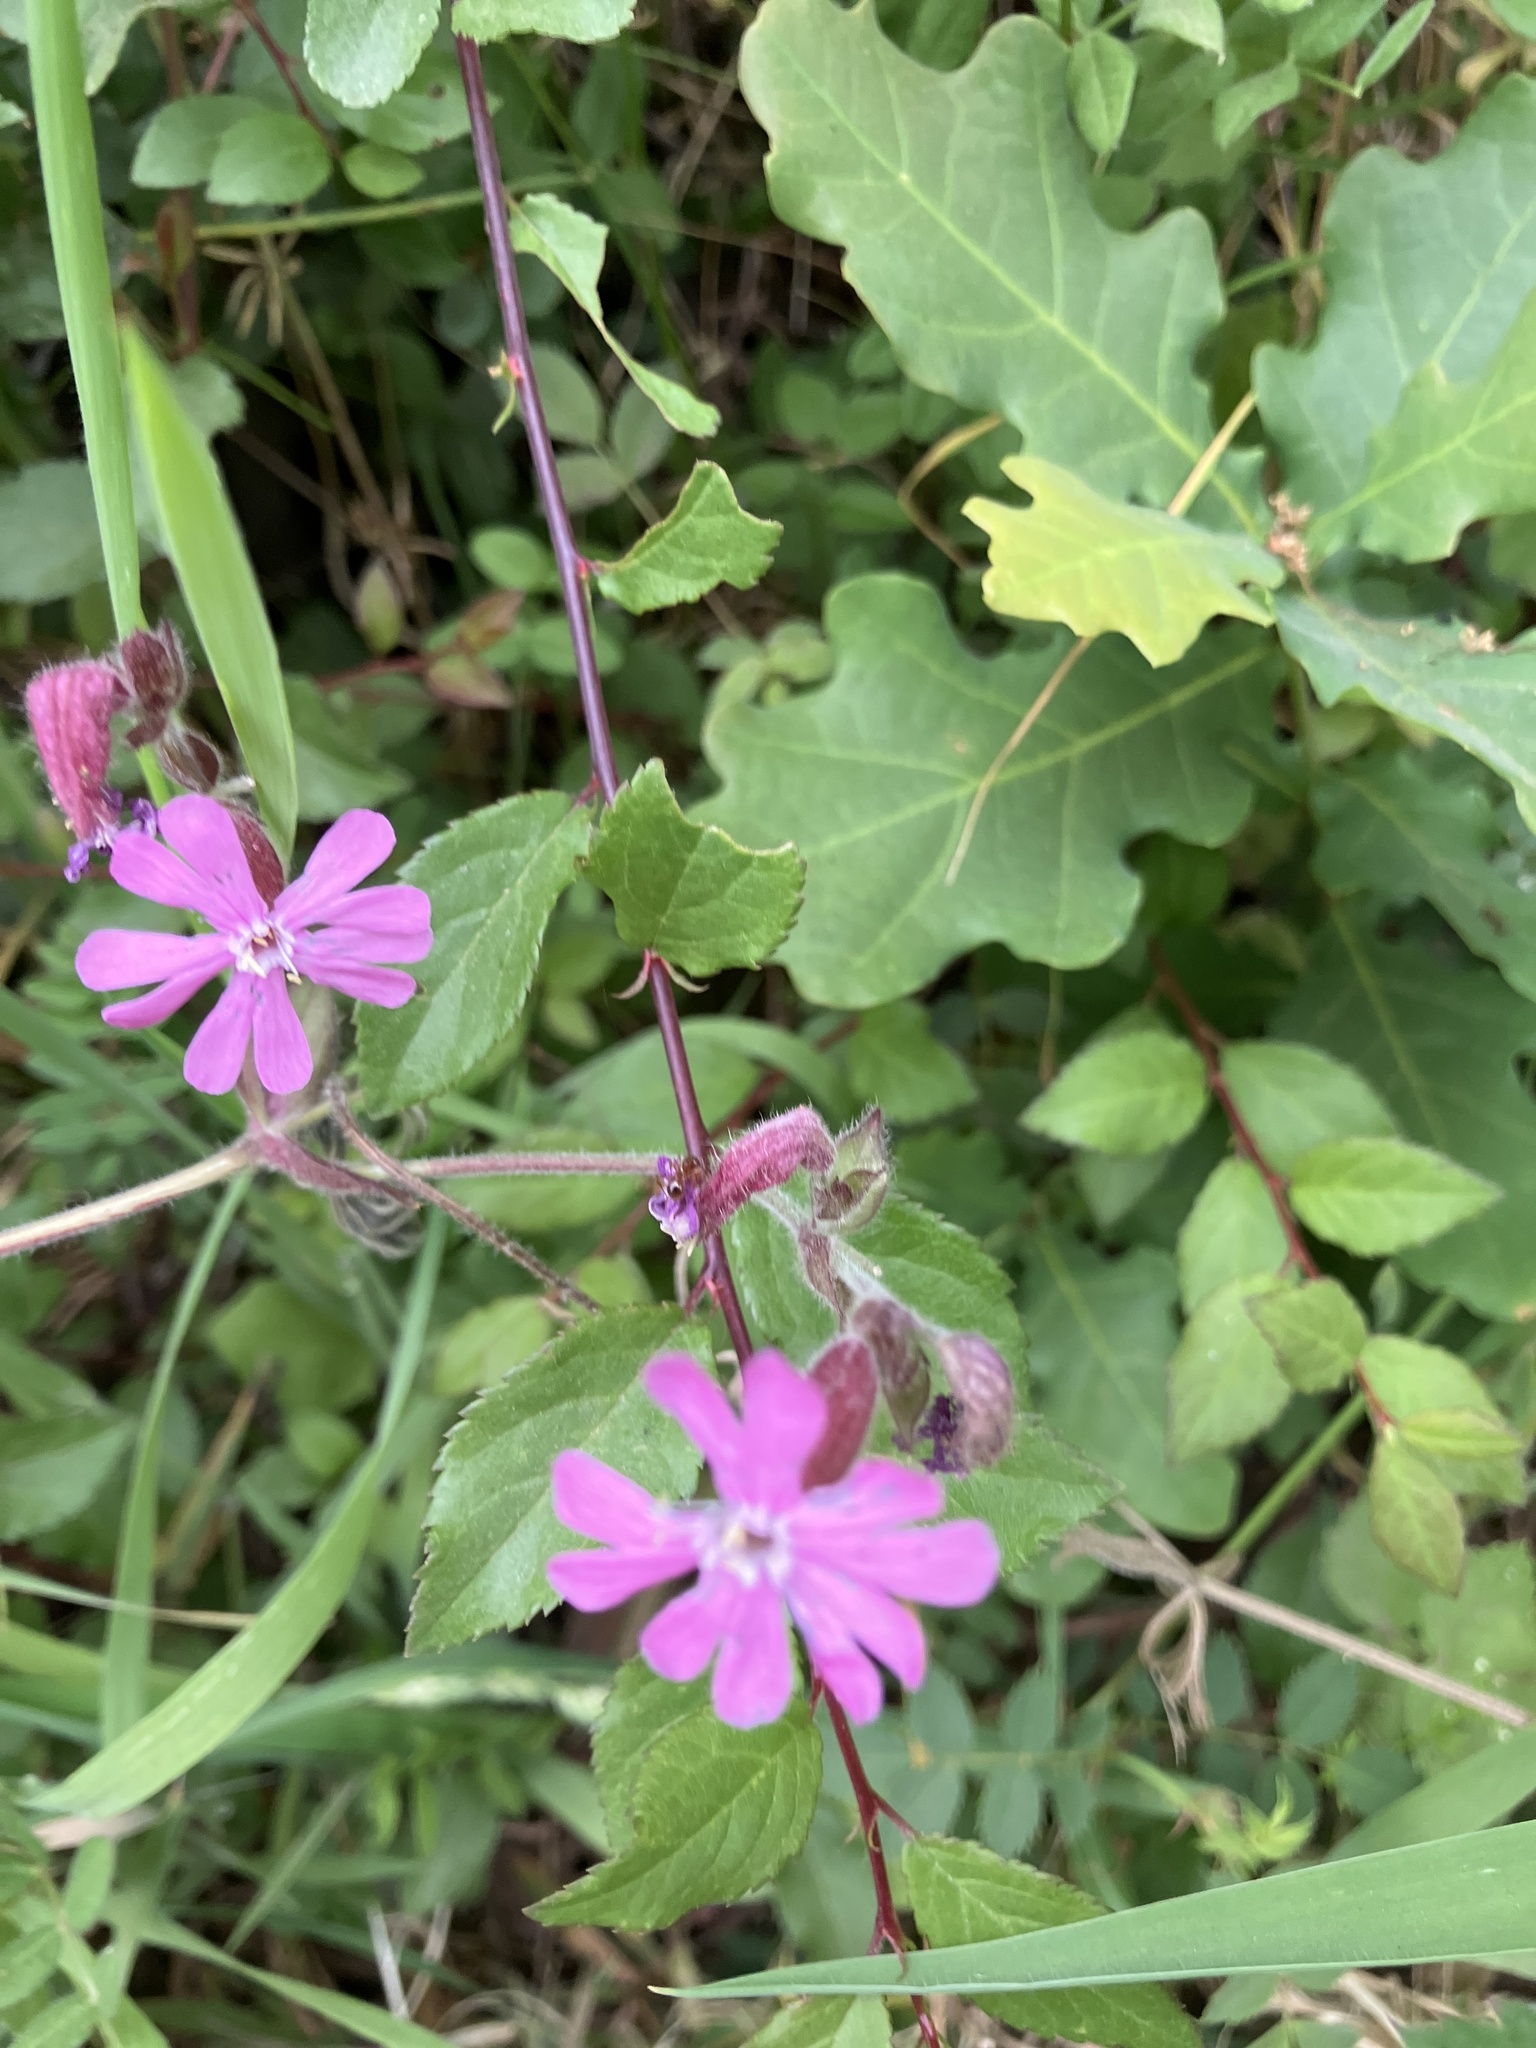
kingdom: Plantae
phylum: Tracheophyta
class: Magnoliopsida
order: Caryophyllales
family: Caryophyllaceae
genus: Silene
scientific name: Silene dioica
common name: Red campion
